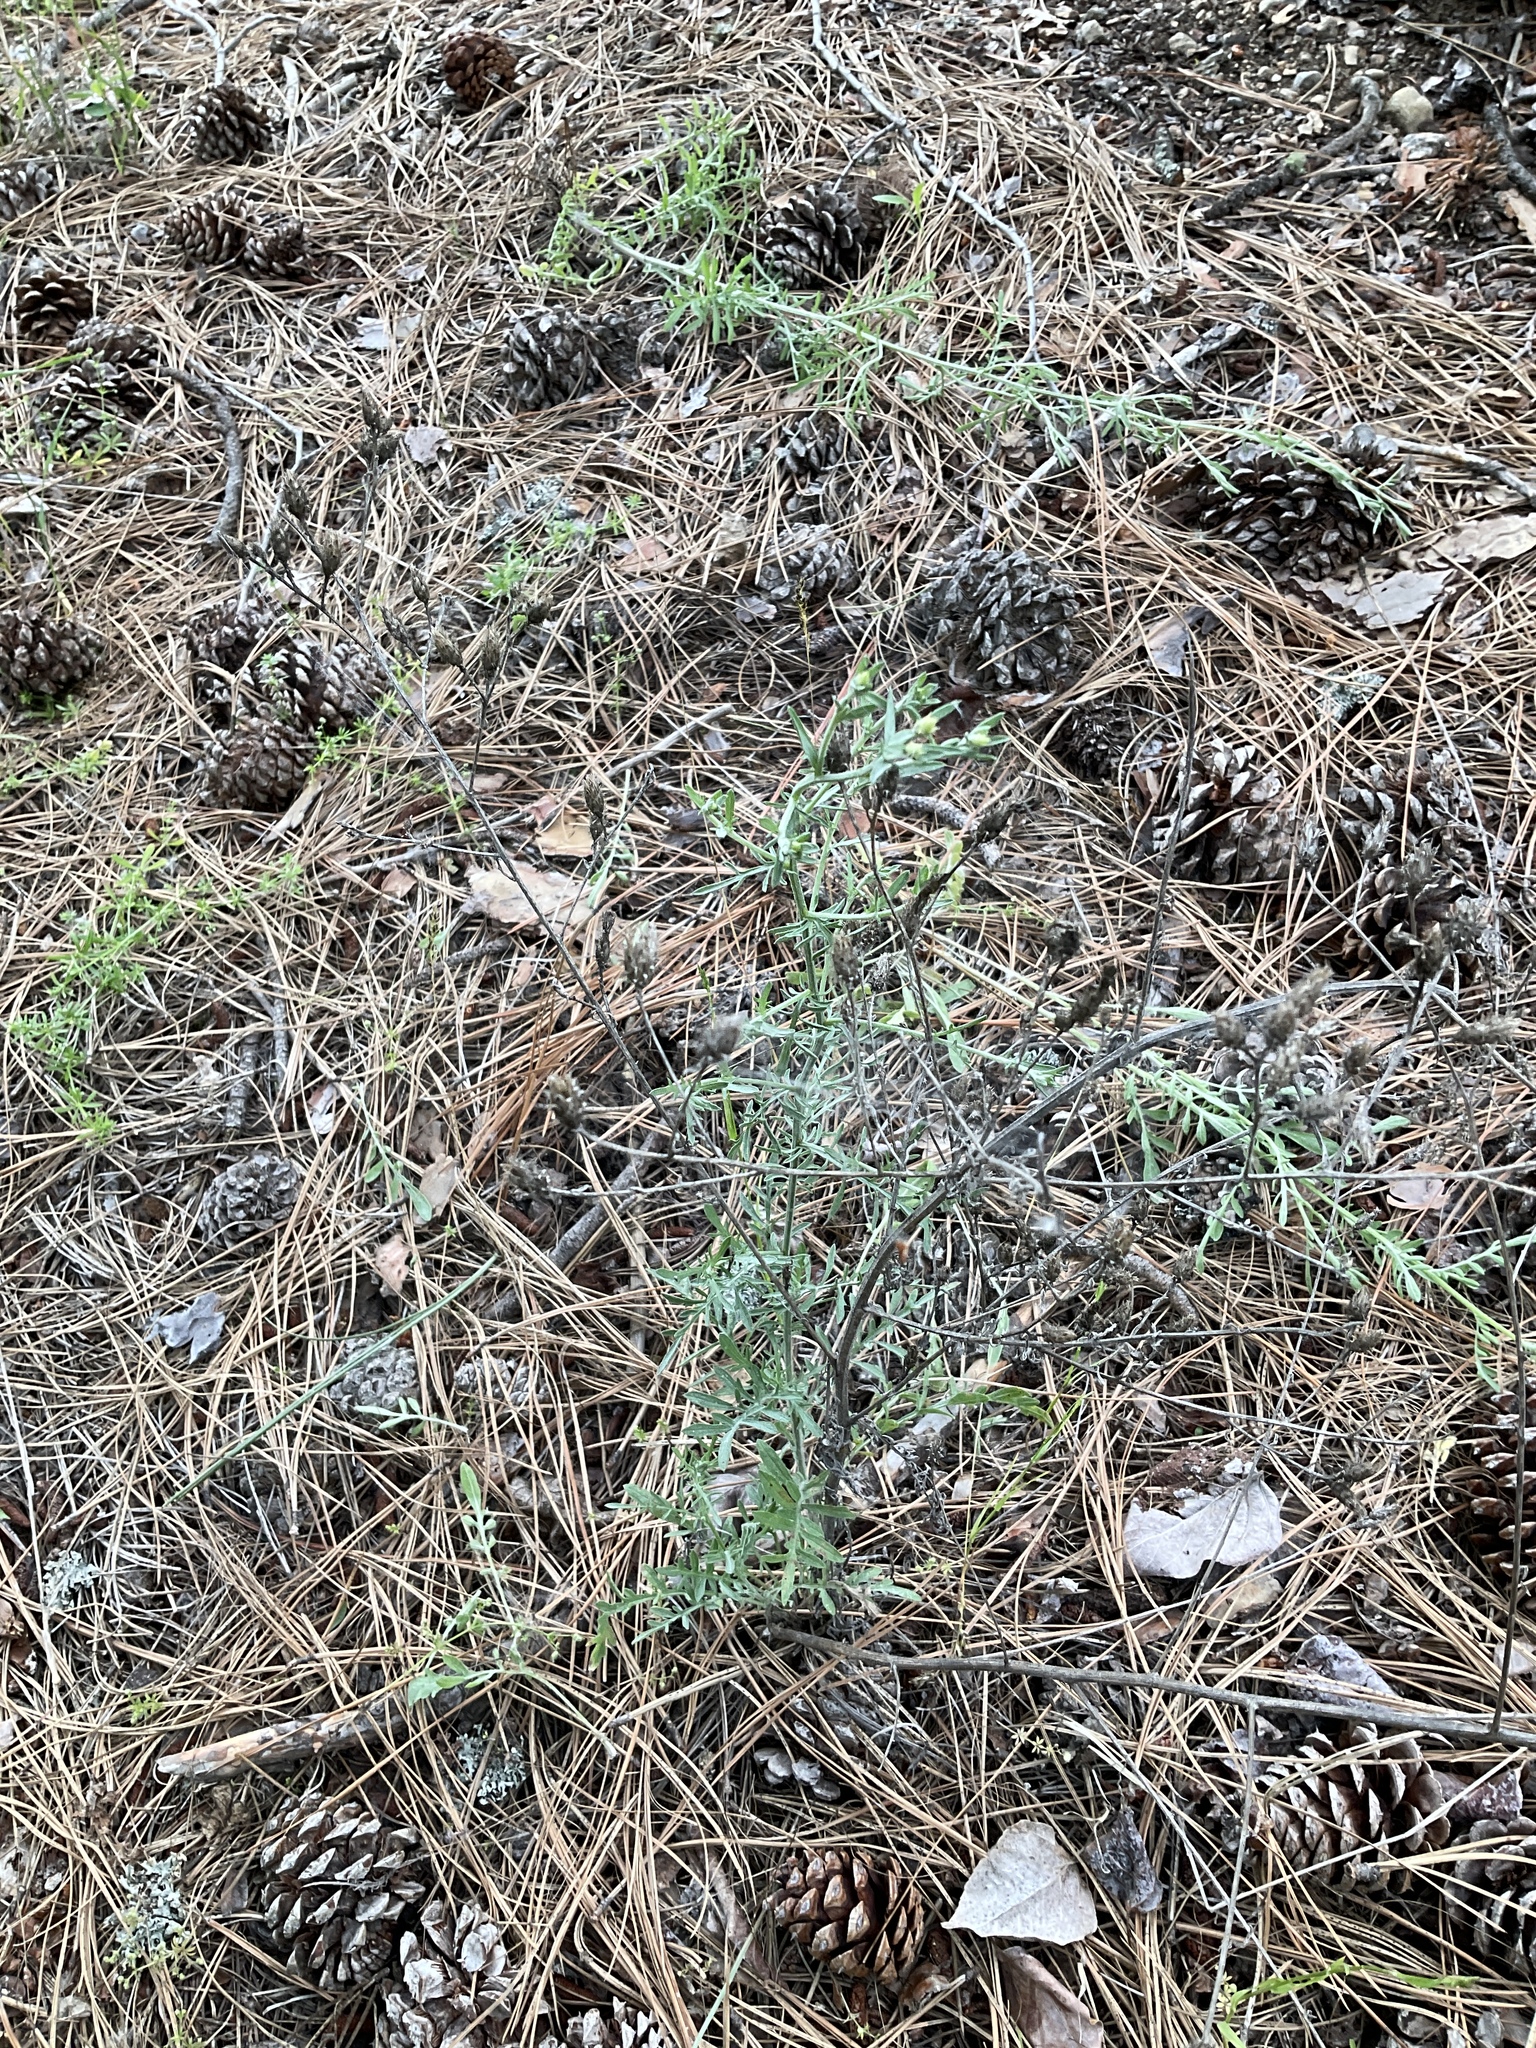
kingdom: Plantae
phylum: Tracheophyta
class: Magnoliopsida
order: Asterales
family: Asteraceae
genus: Centaurea
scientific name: Centaurea diffusa
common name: Diffuse knapweed
